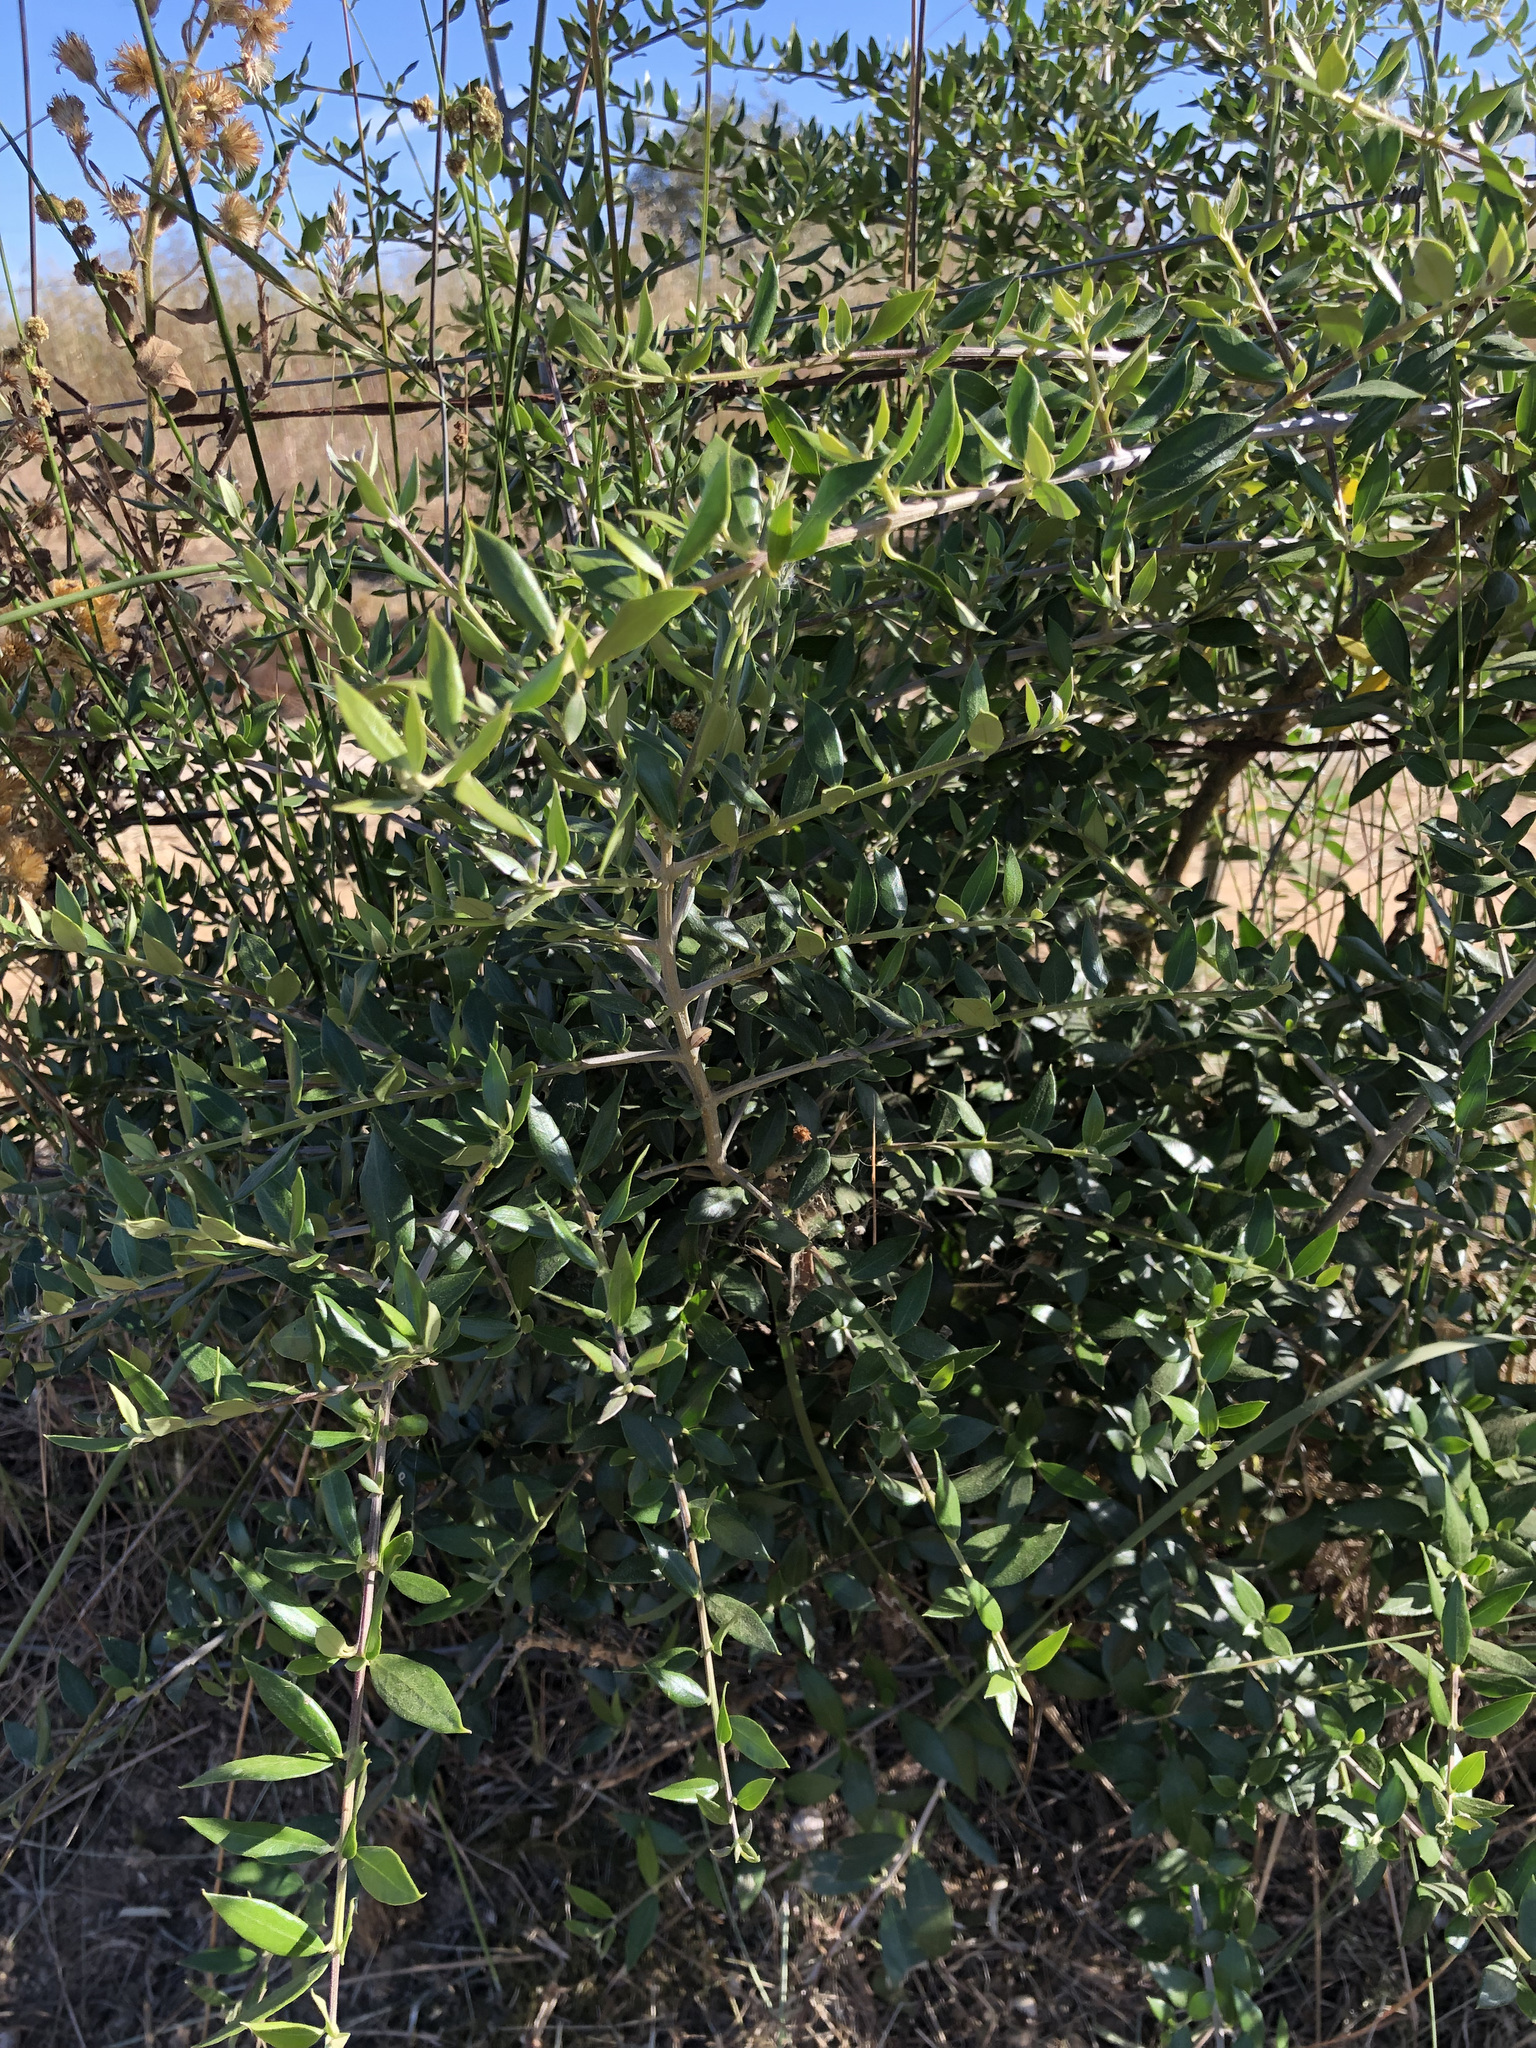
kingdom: Plantae
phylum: Tracheophyta
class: Magnoliopsida
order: Lamiales
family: Oleaceae
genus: Olea
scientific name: Olea europaea
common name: Olive
